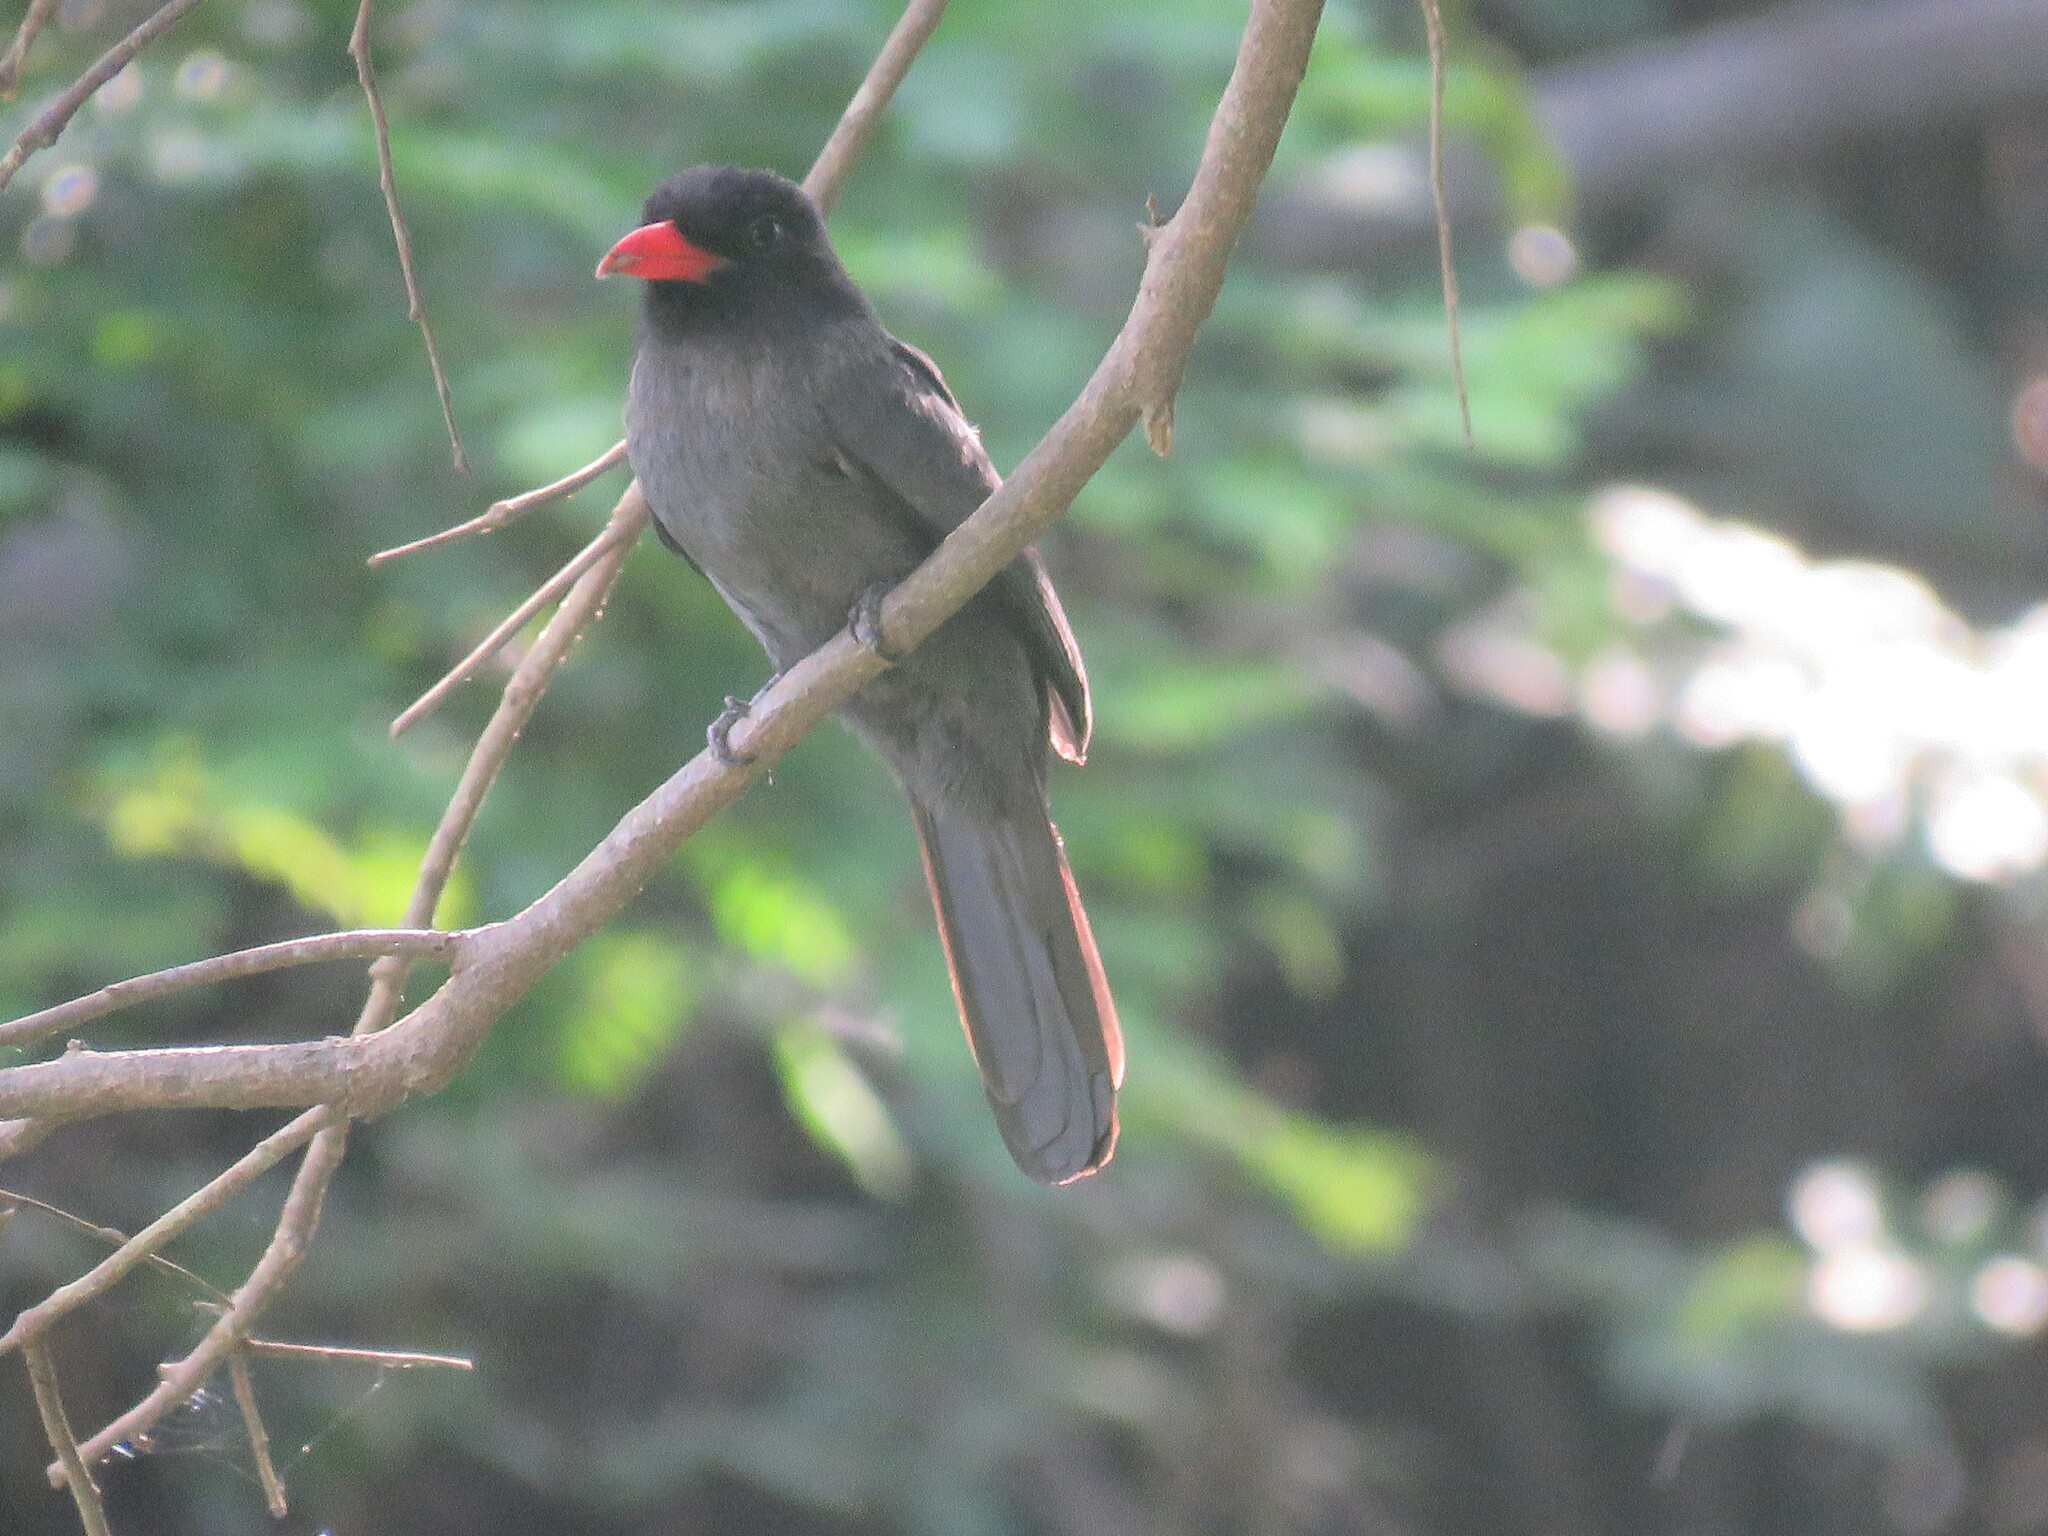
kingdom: Animalia
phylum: Chordata
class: Aves
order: Piciformes
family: Bucconidae
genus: Monasa
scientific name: Monasa nigrifrons
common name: Black-fronted nunbird
